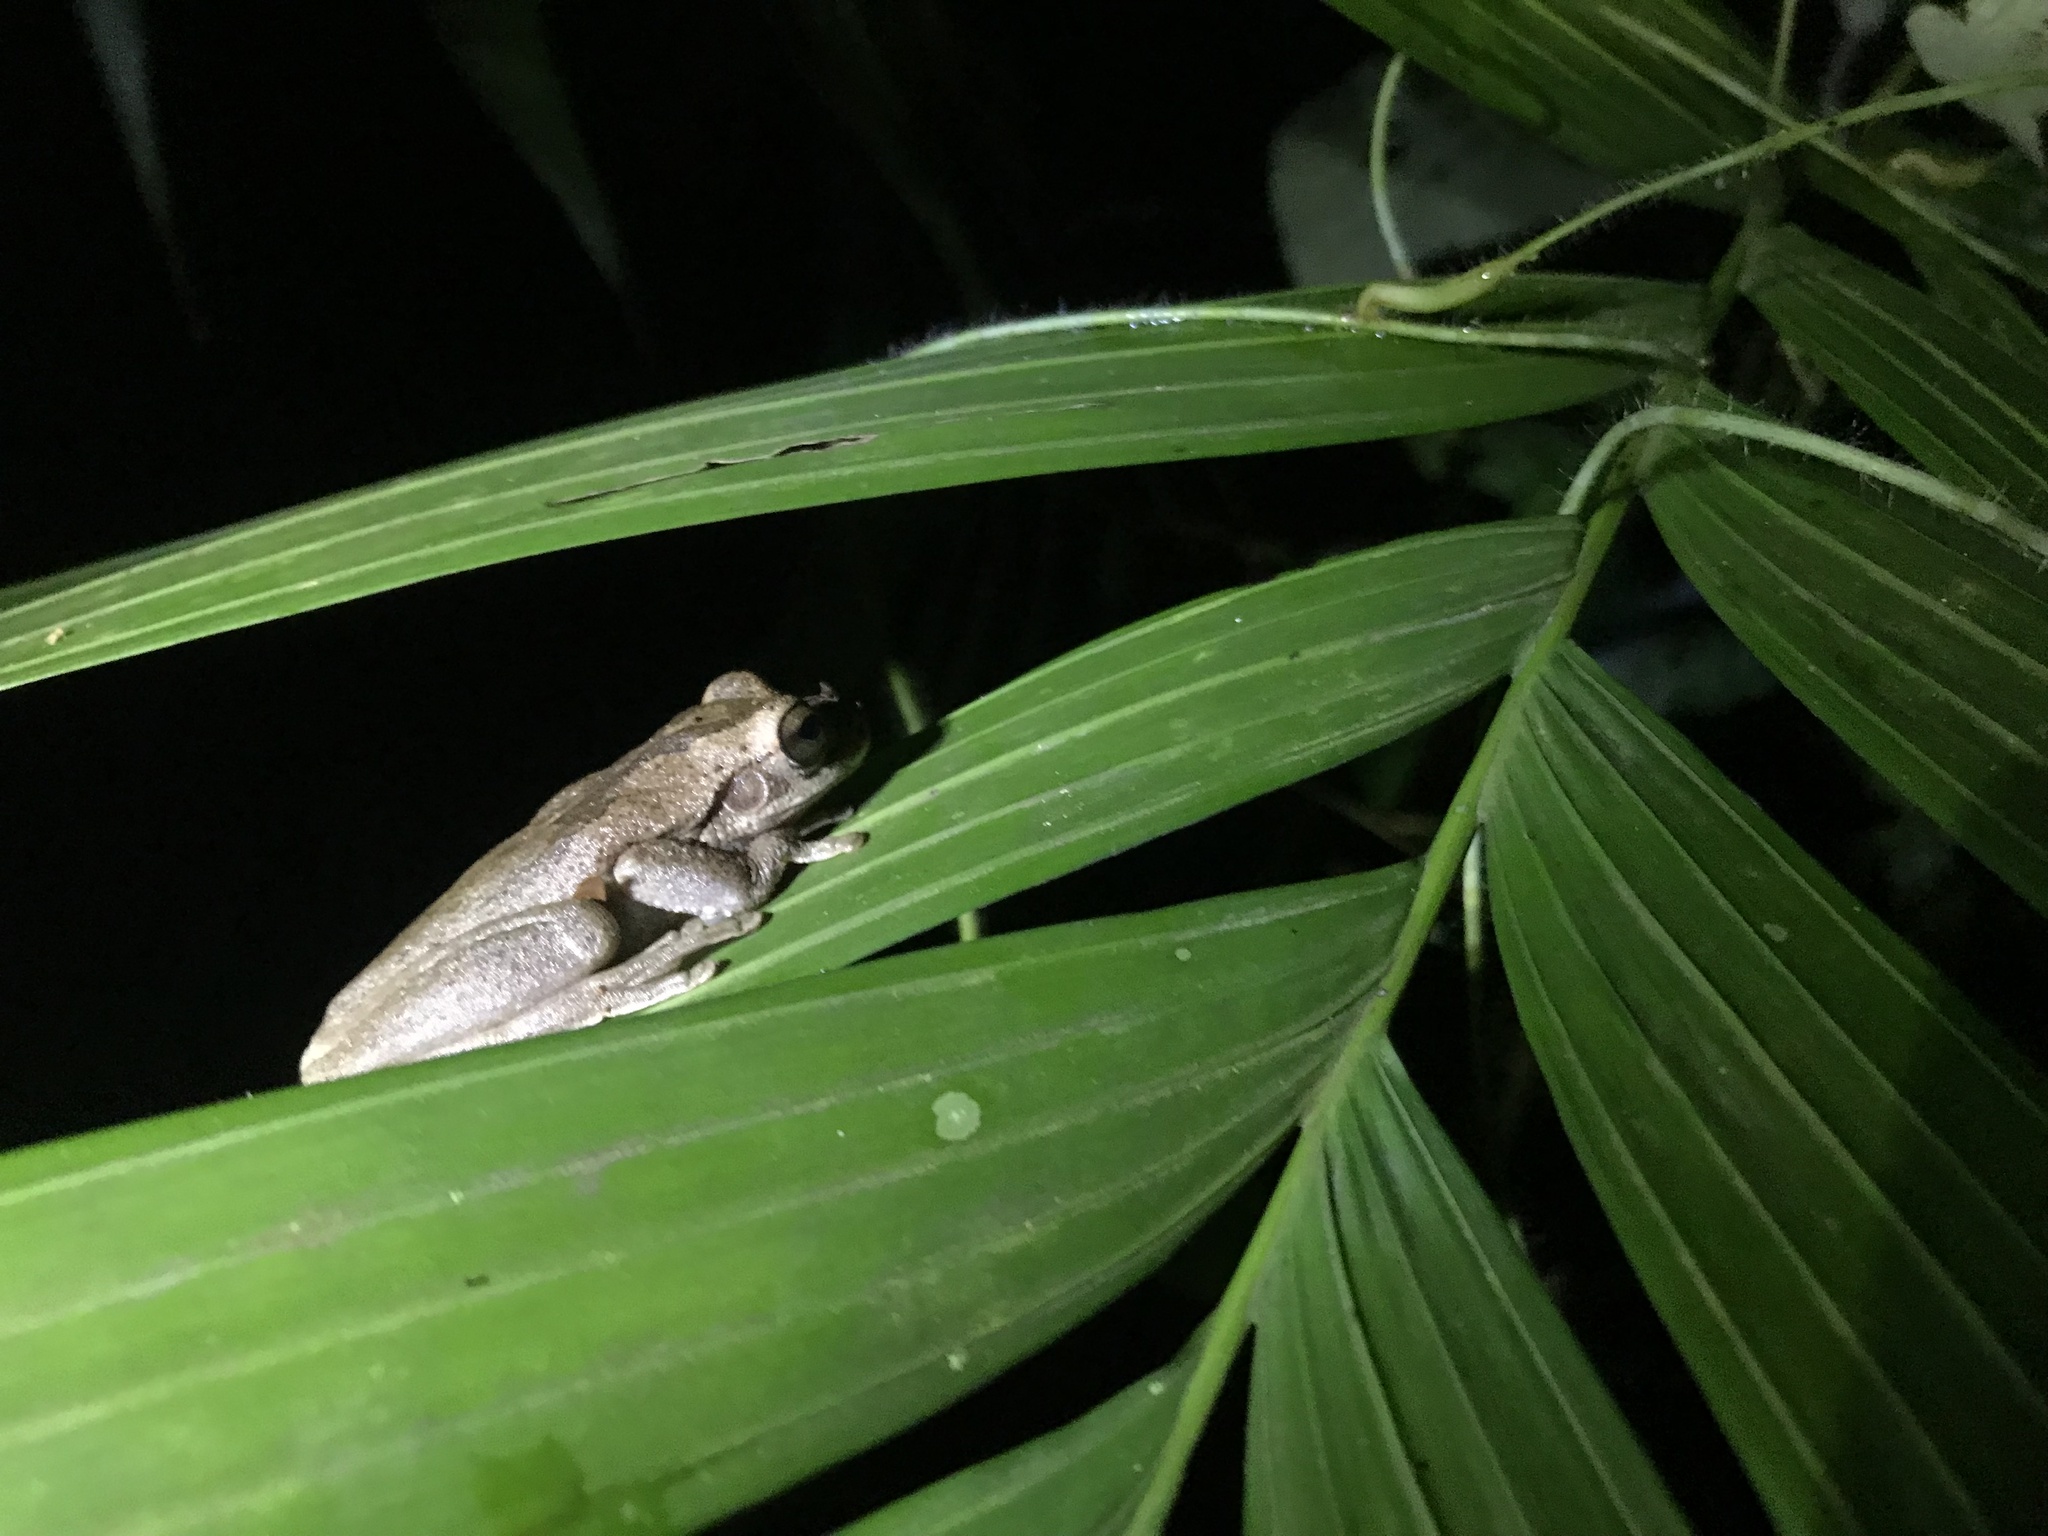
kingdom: Animalia
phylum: Chordata
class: Amphibia
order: Anura
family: Hylidae
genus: Smilisca
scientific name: Smilisca baudinii
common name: Mexican smilisca
